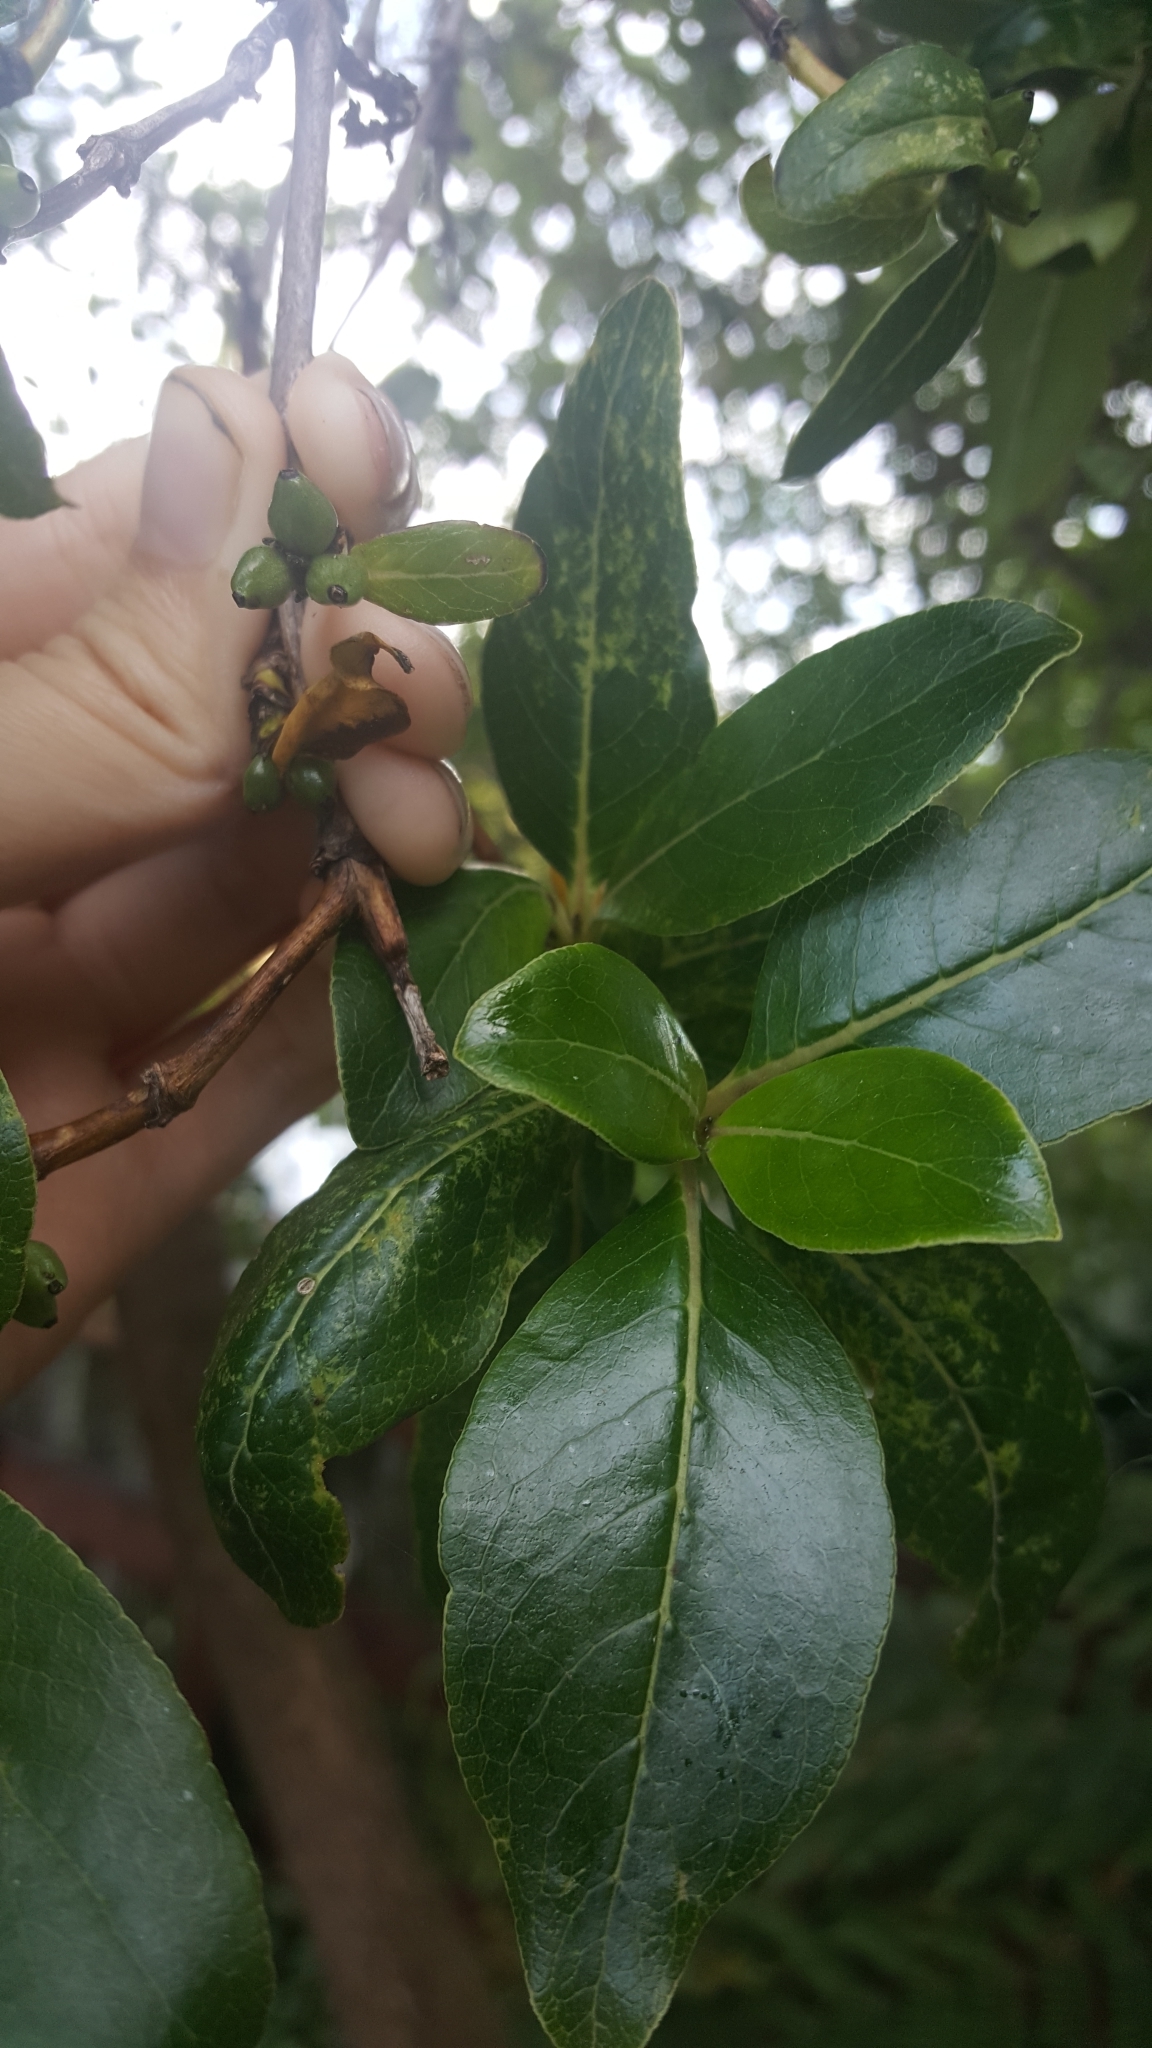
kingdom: Plantae
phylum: Tracheophyta
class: Magnoliopsida
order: Gentianales
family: Rubiaceae
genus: Coprosma
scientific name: Coprosma robusta
